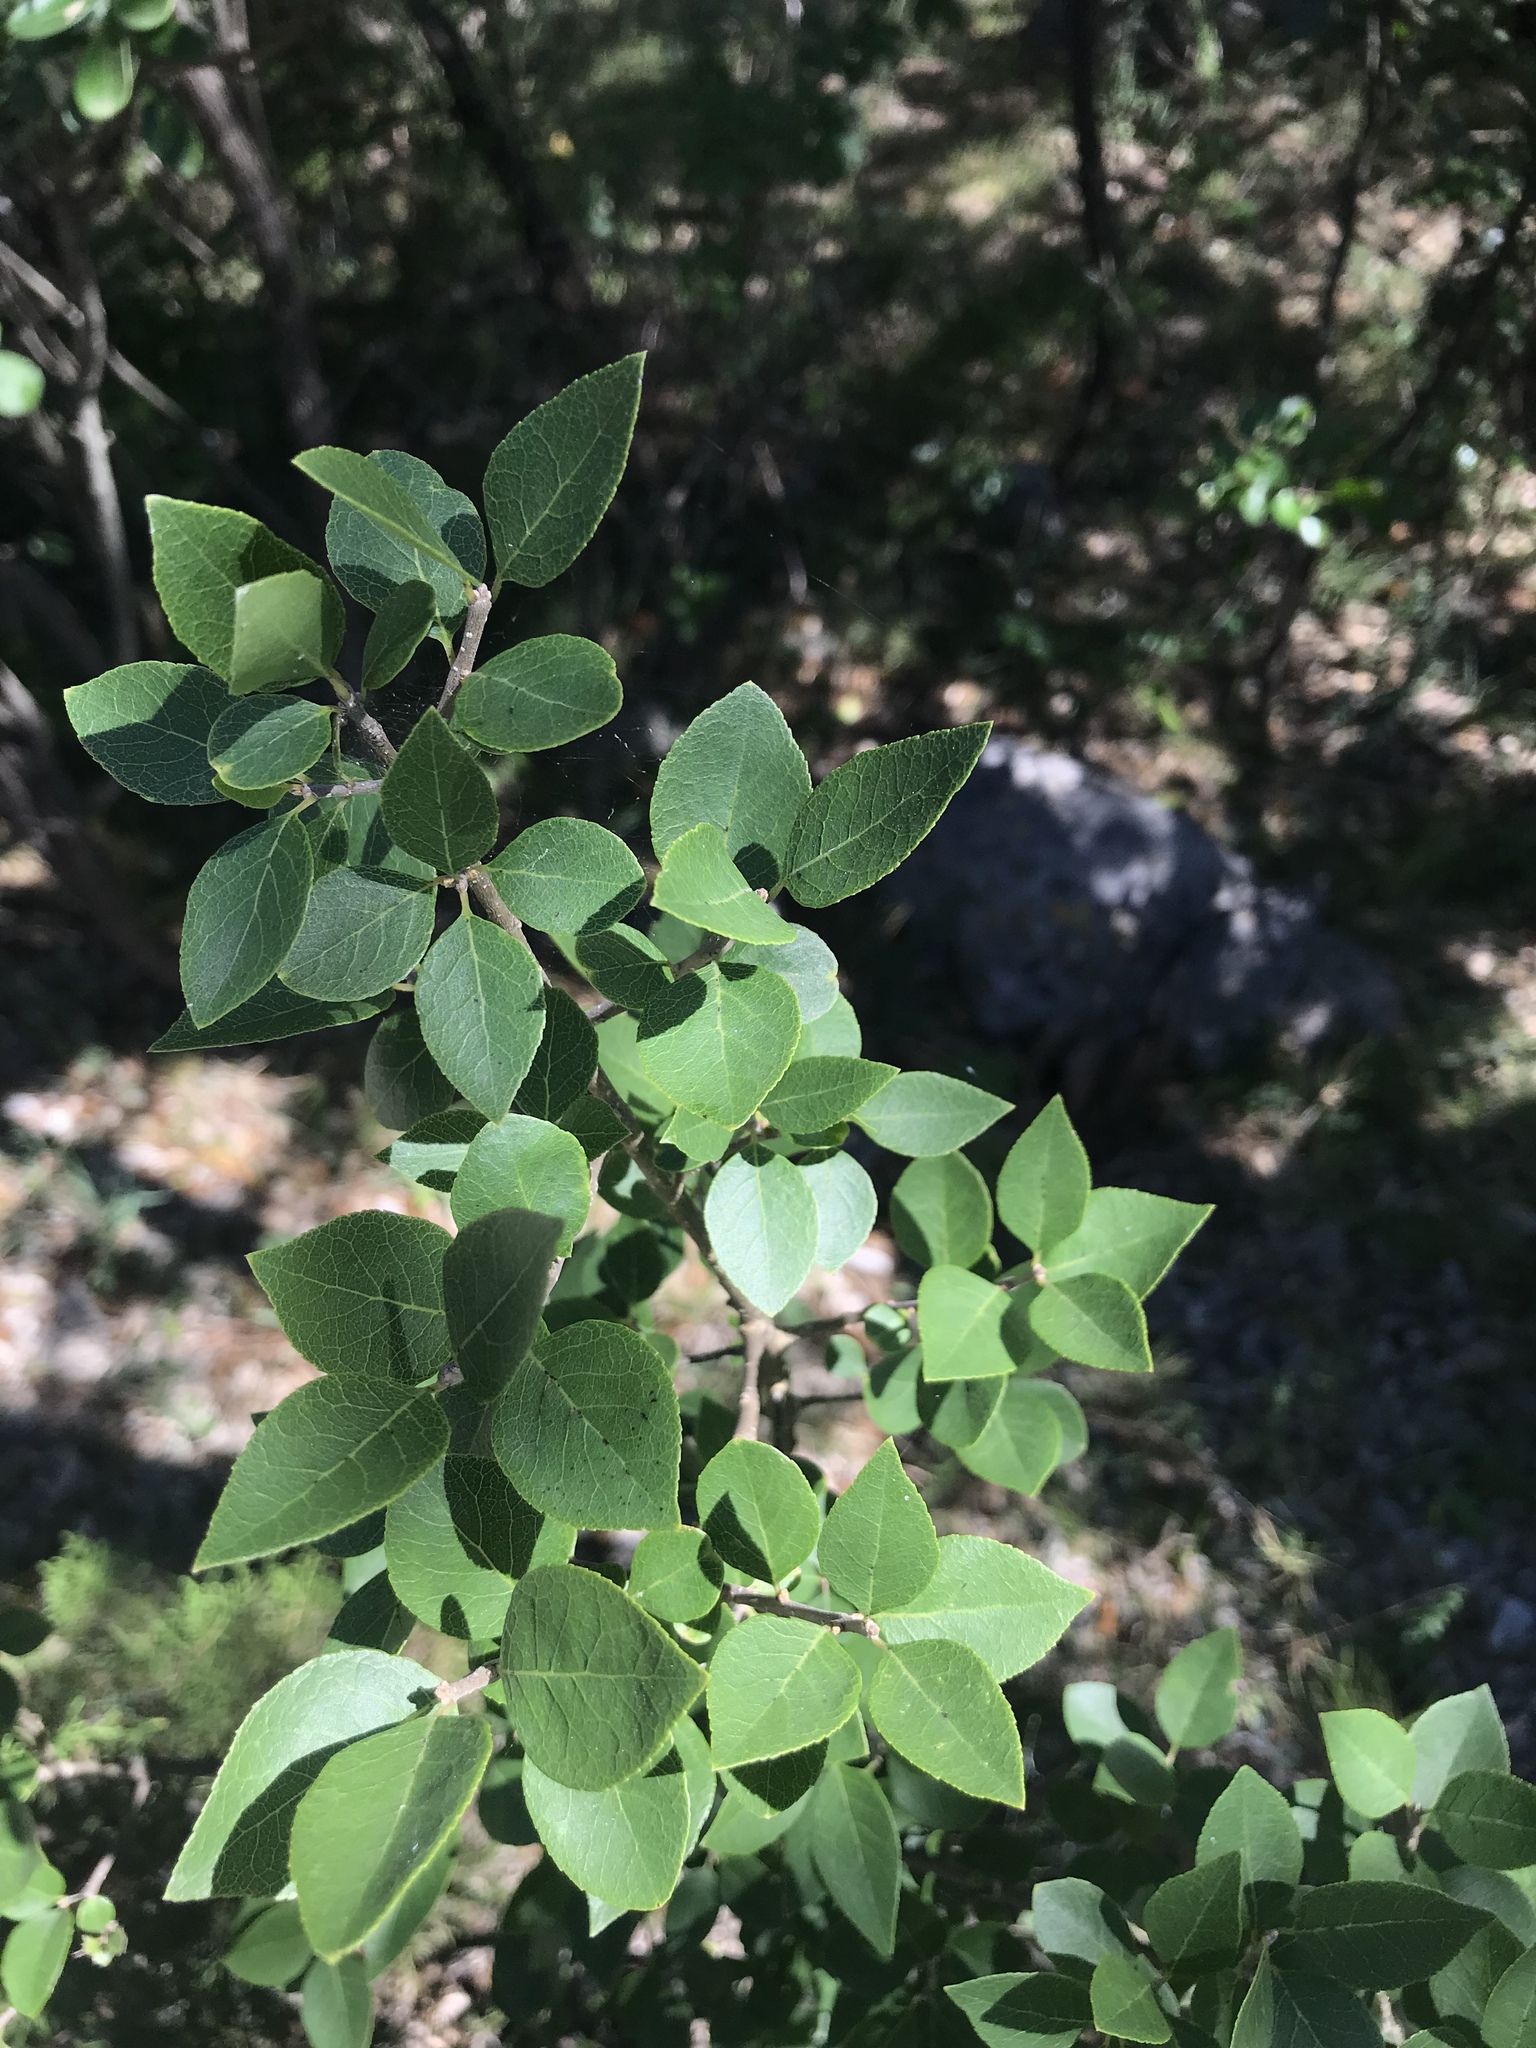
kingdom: Plantae
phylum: Tracheophyta
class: Magnoliopsida
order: Lamiales
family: Oleaceae
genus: Forestiera
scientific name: Forestiera reticulata
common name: Netleaf swamp-privet
